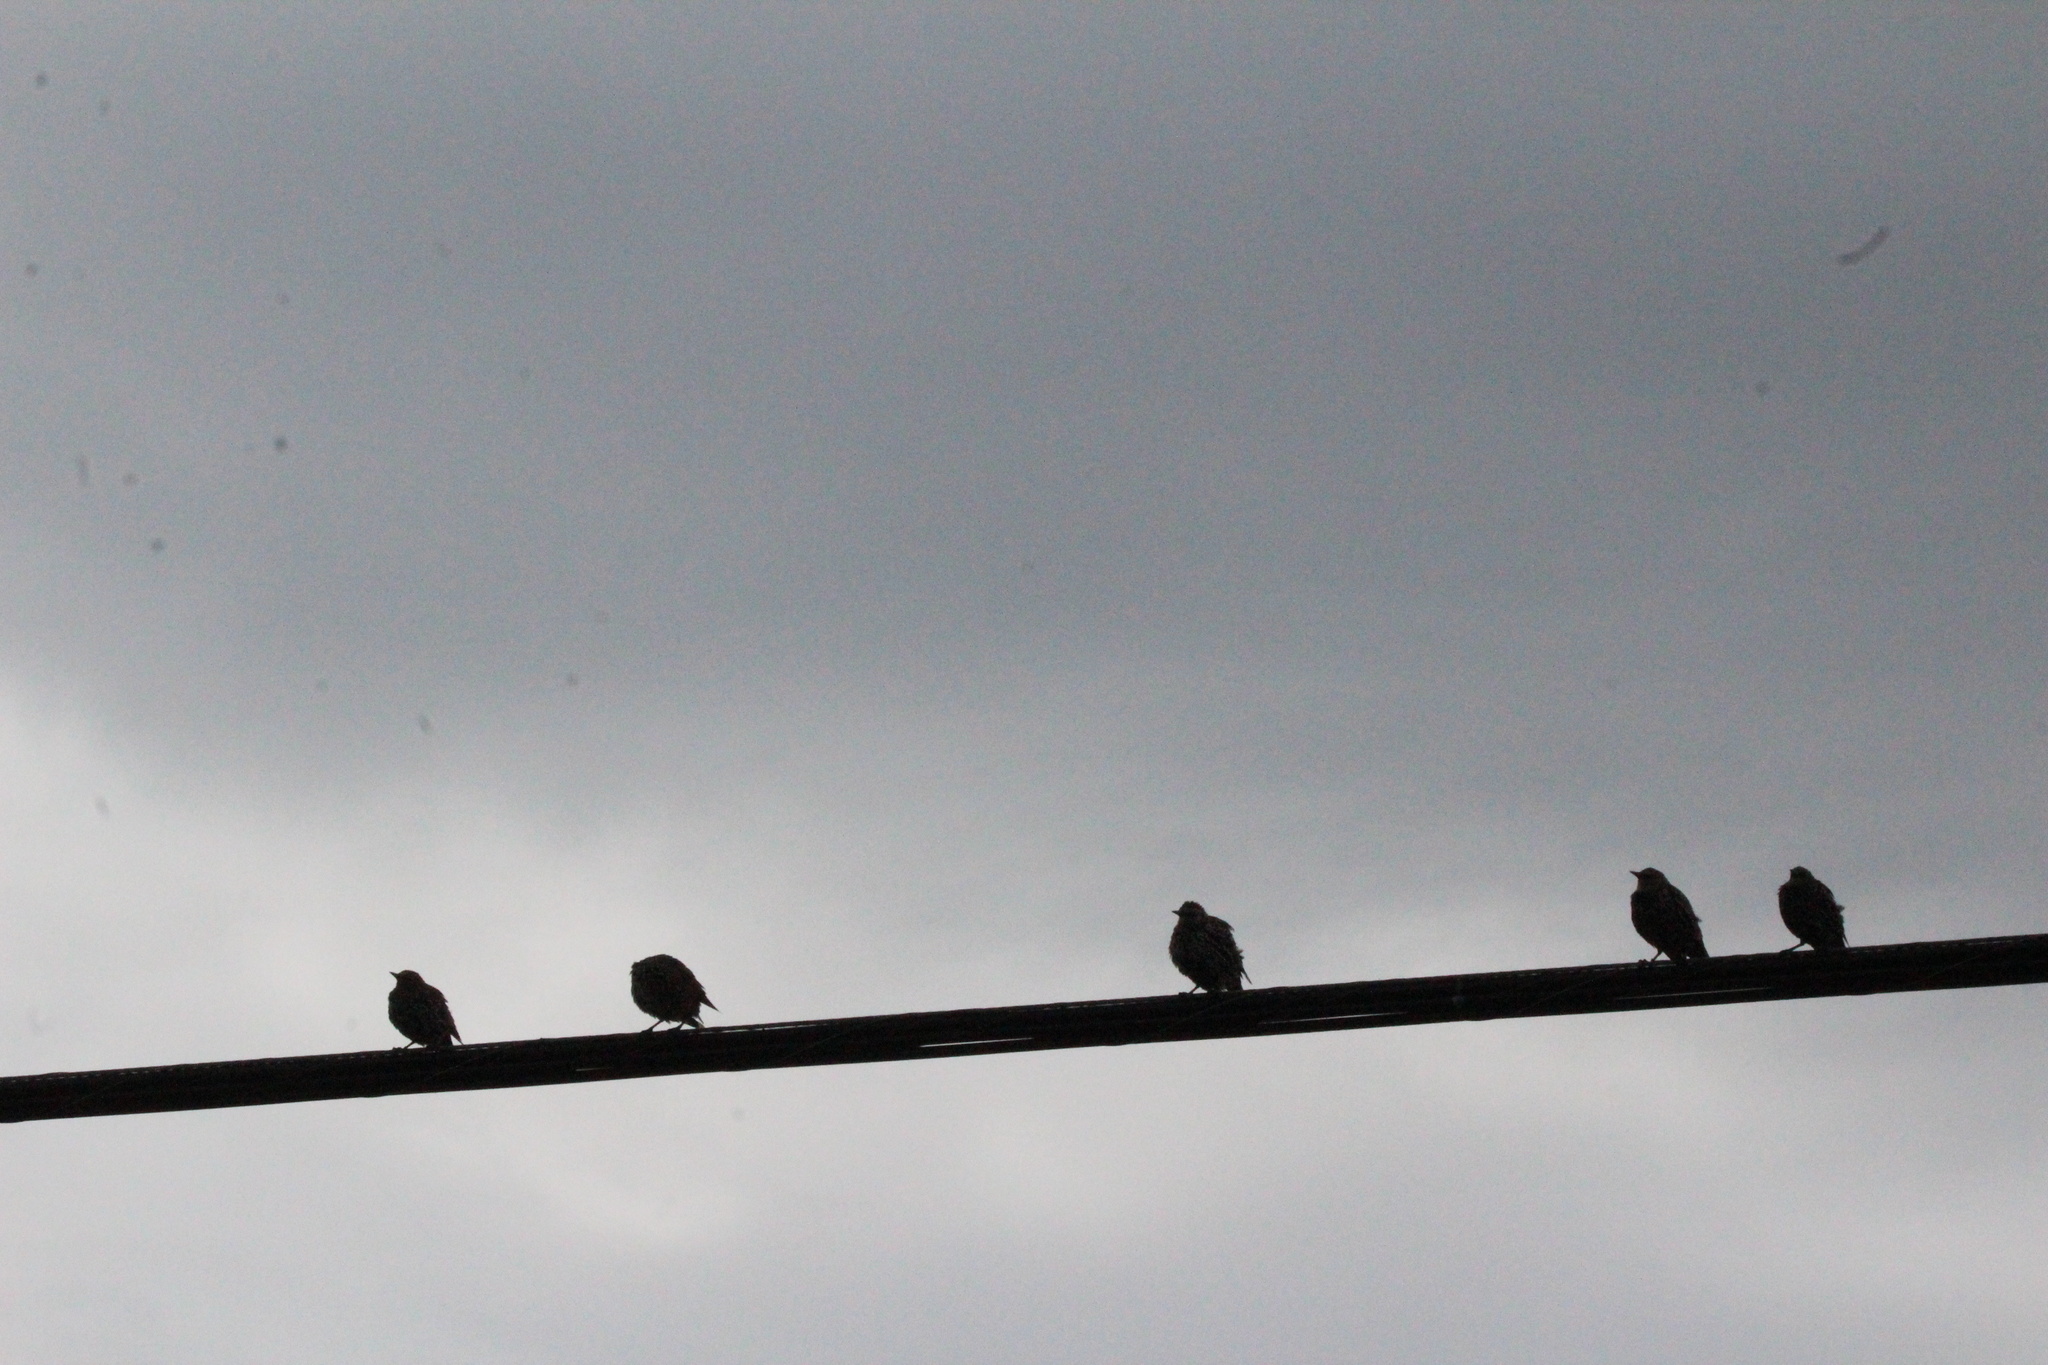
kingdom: Animalia
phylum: Chordata
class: Aves
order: Passeriformes
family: Sturnidae
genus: Sturnus
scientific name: Sturnus vulgaris
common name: Common starling
